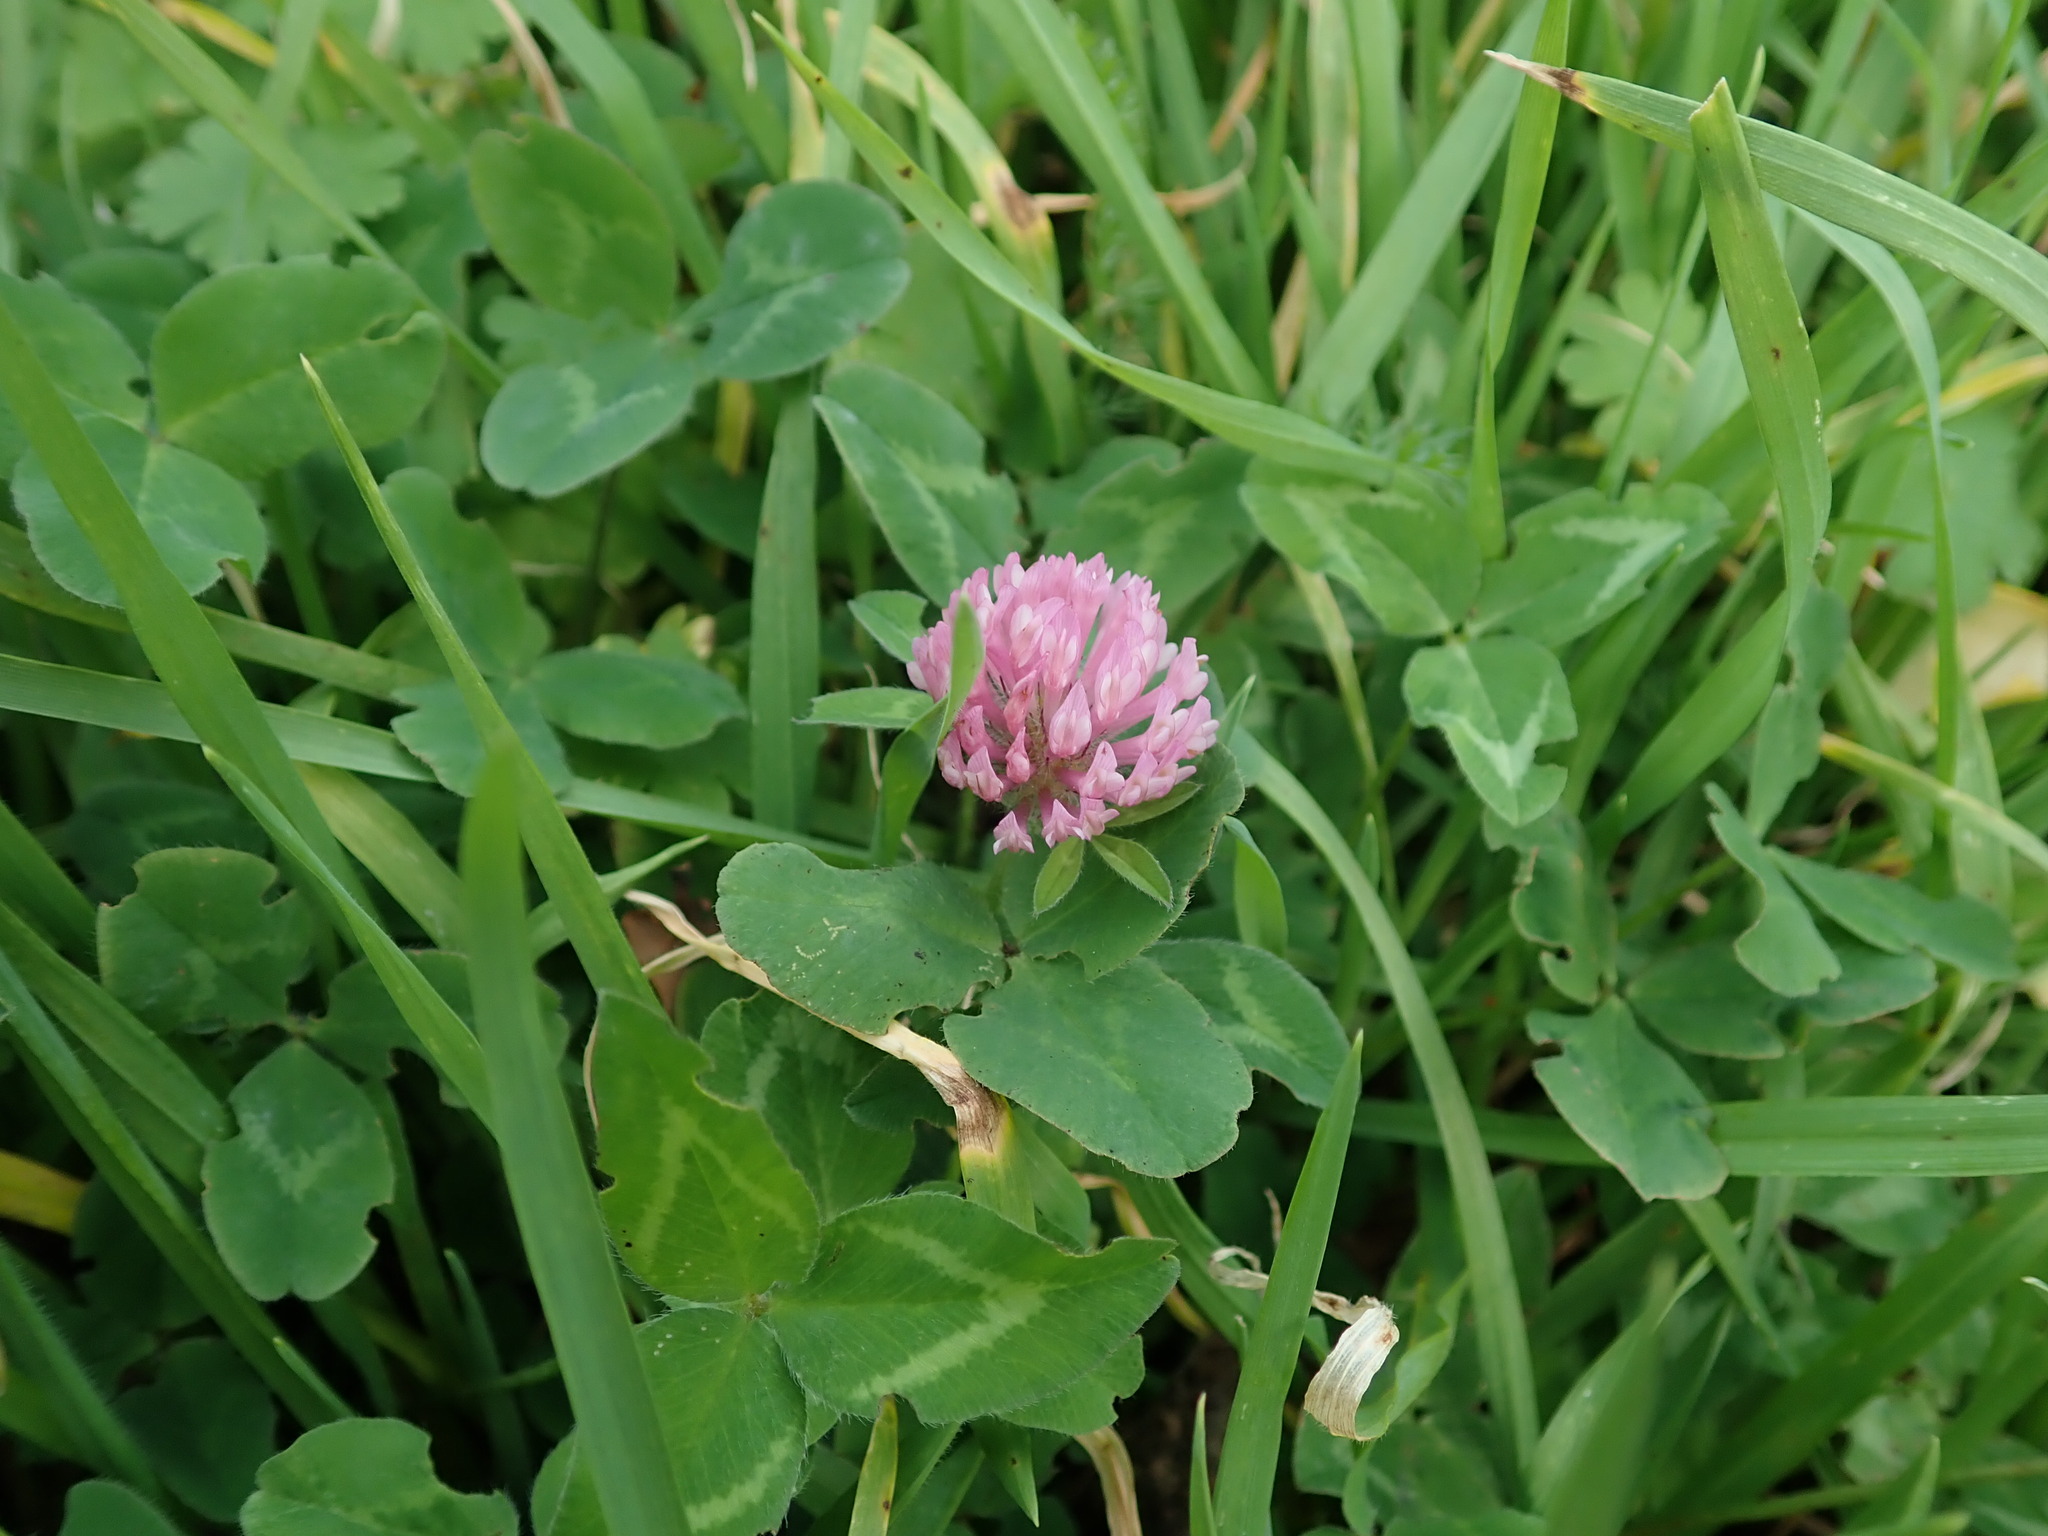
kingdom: Plantae
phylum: Tracheophyta
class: Magnoliopsida
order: Fabales
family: Fabaceae
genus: Trifolium
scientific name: Trifolium pratense
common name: Red clover
